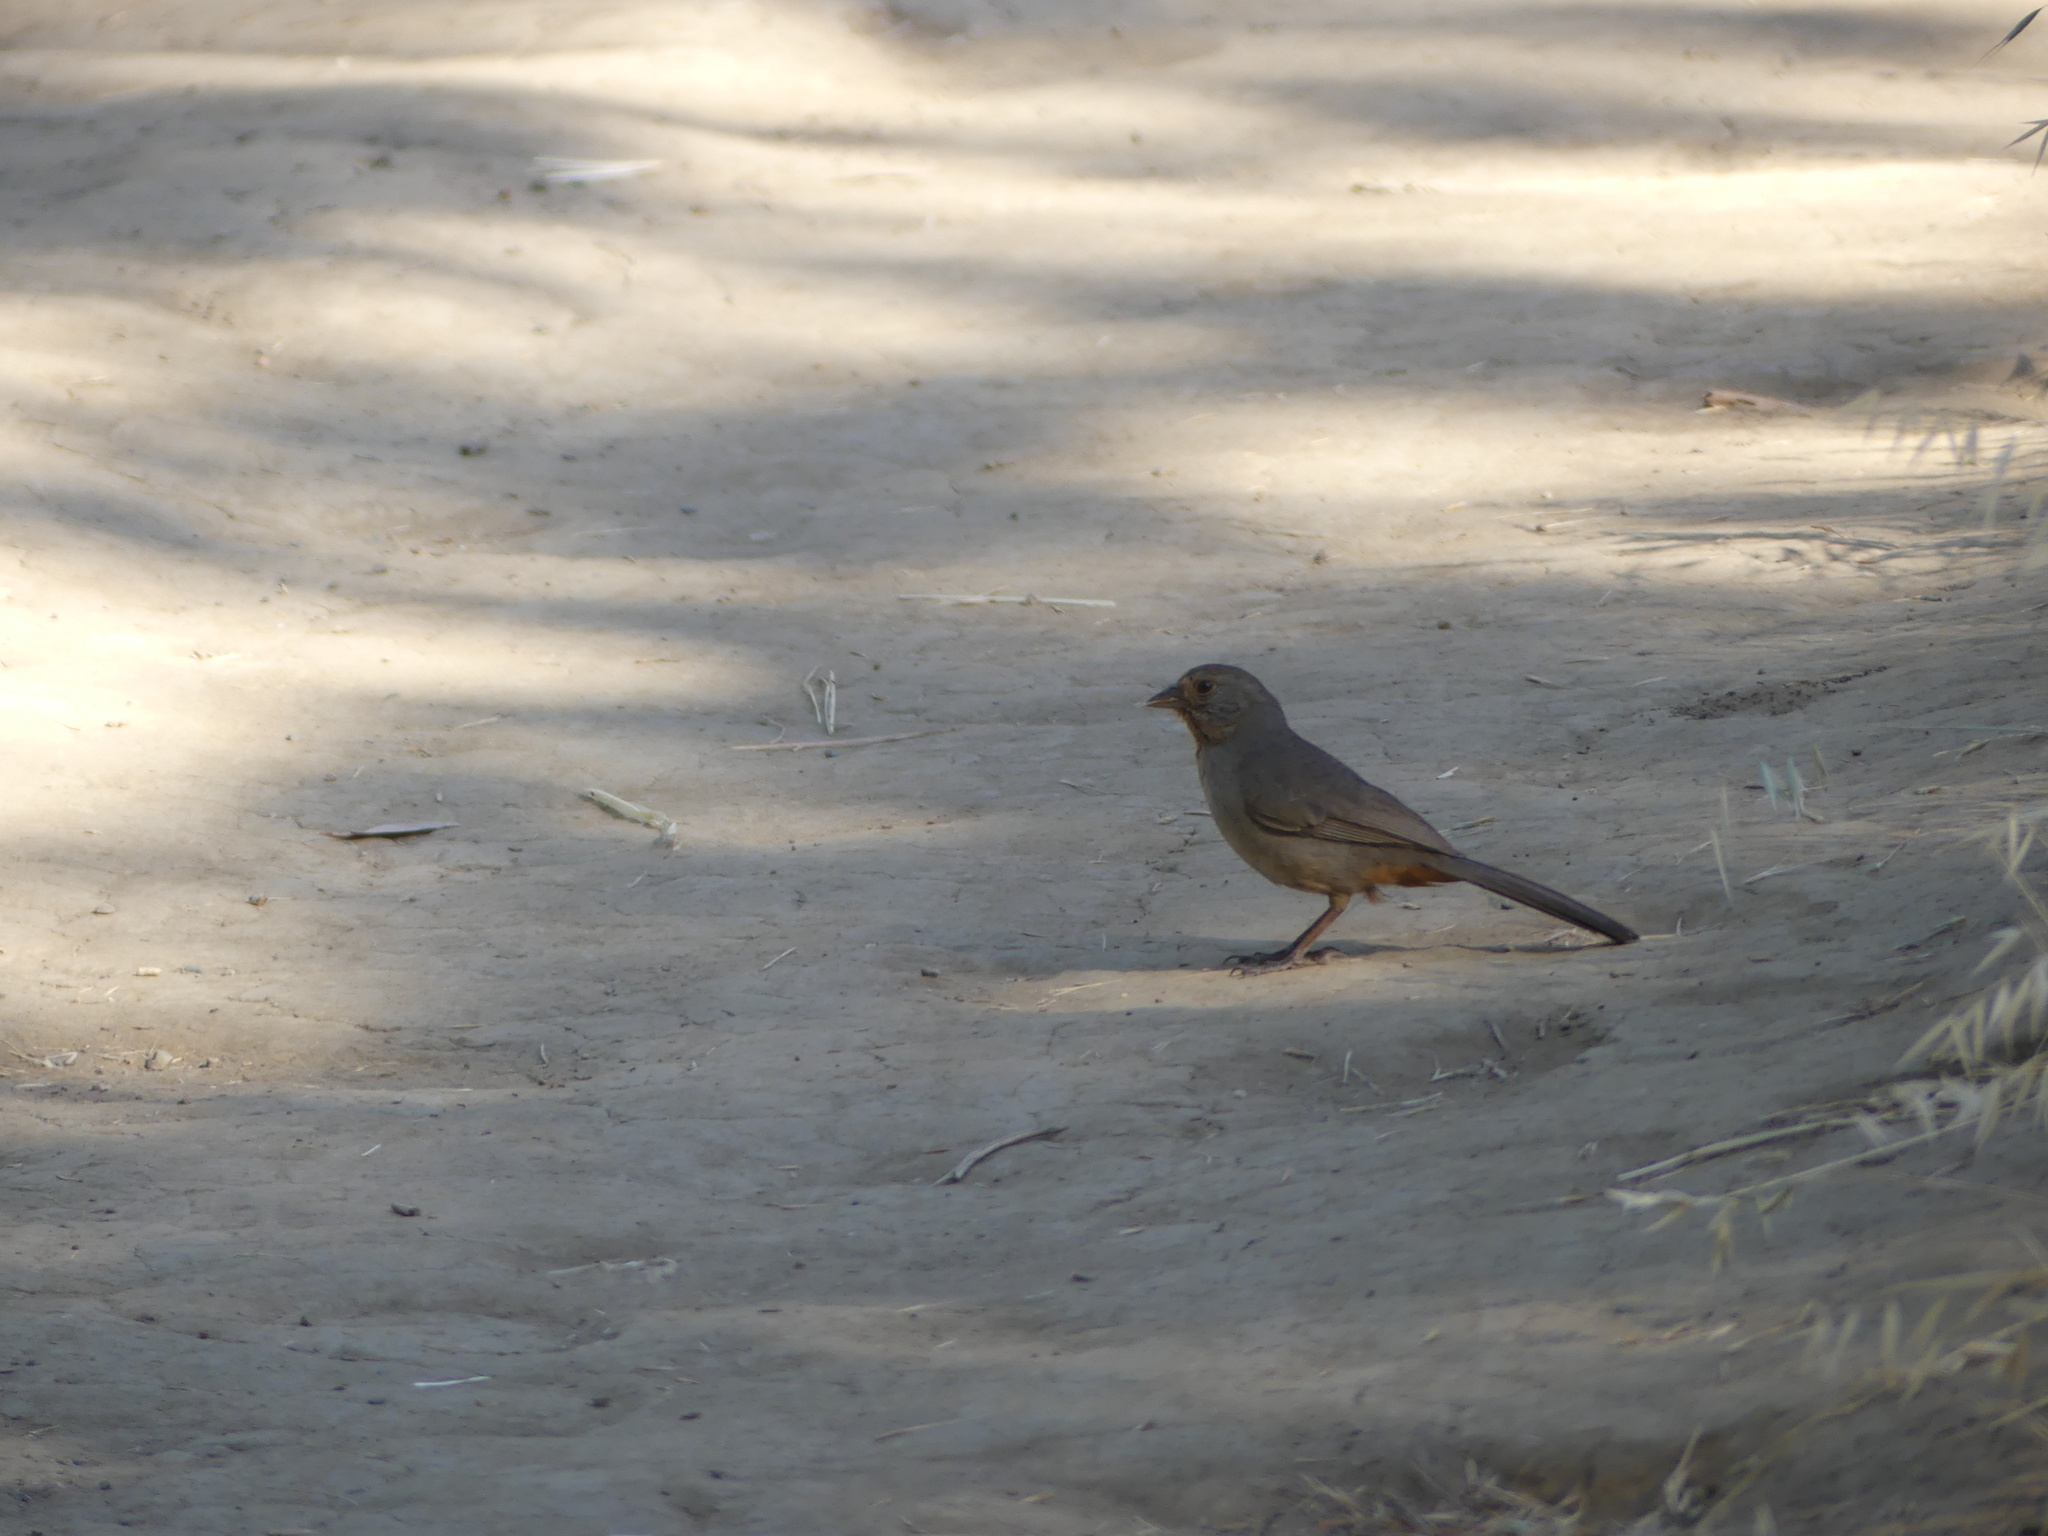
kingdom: Animalia
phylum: Chordata
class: Aves
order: Passeriformes
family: Passerellidae
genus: Melozone
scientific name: Melozone crissalis
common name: California towhee
